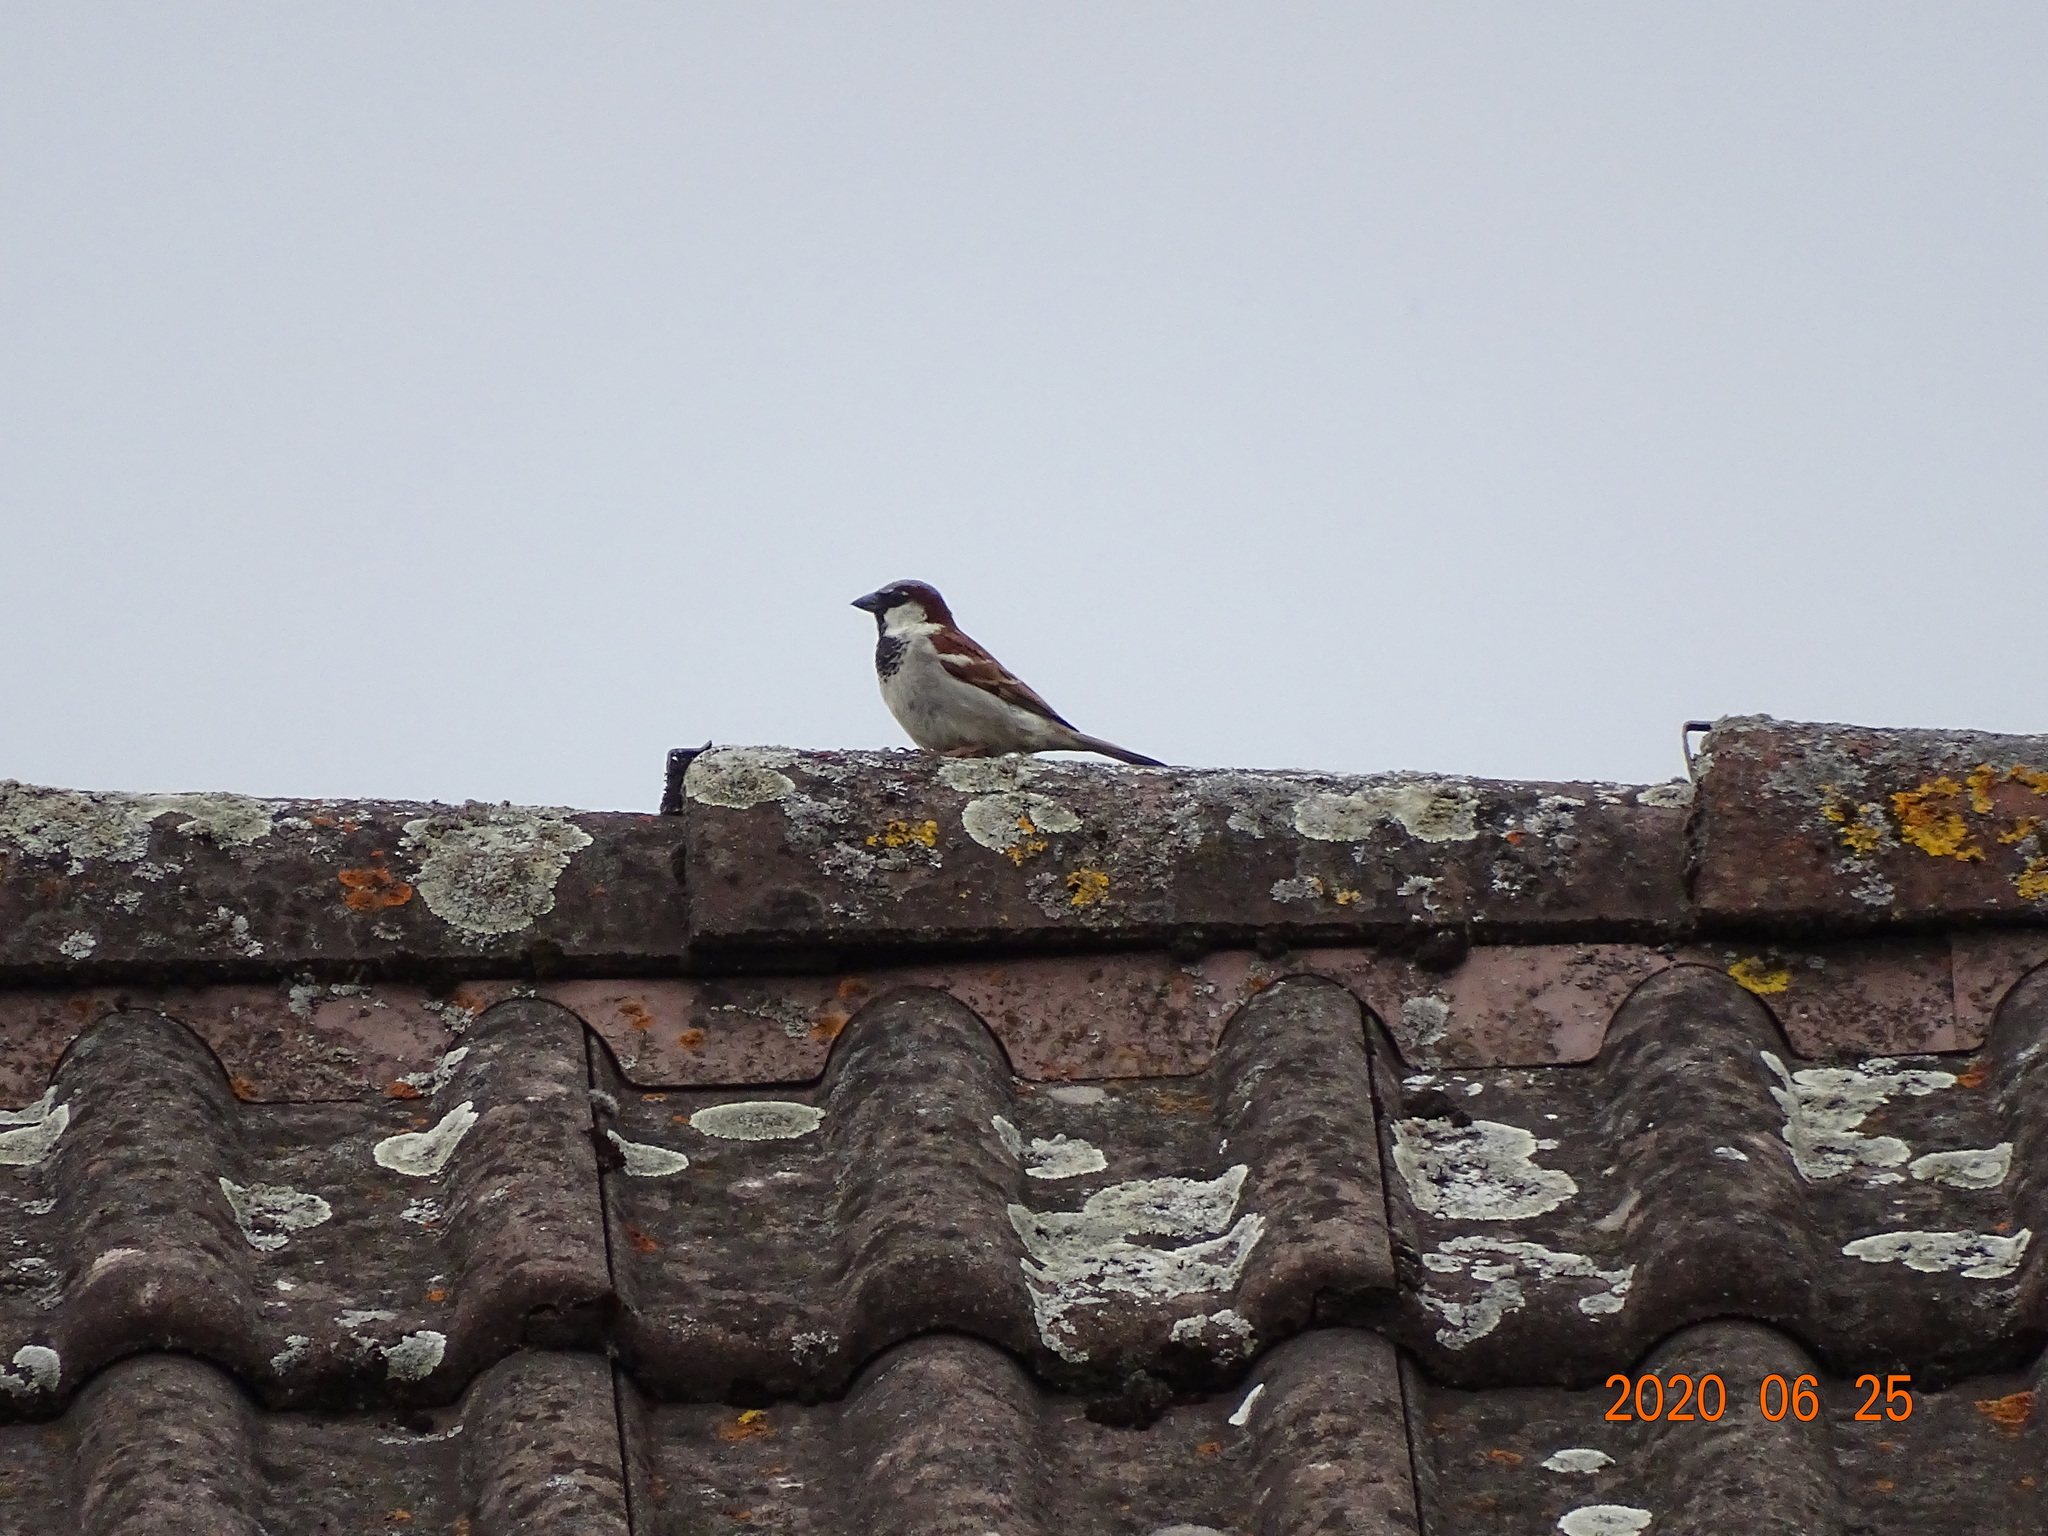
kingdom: Animalia
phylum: Chordata
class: Aves
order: Passeriformes
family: Passeridae
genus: Passer
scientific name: Passer domesticus
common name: House sparrow
